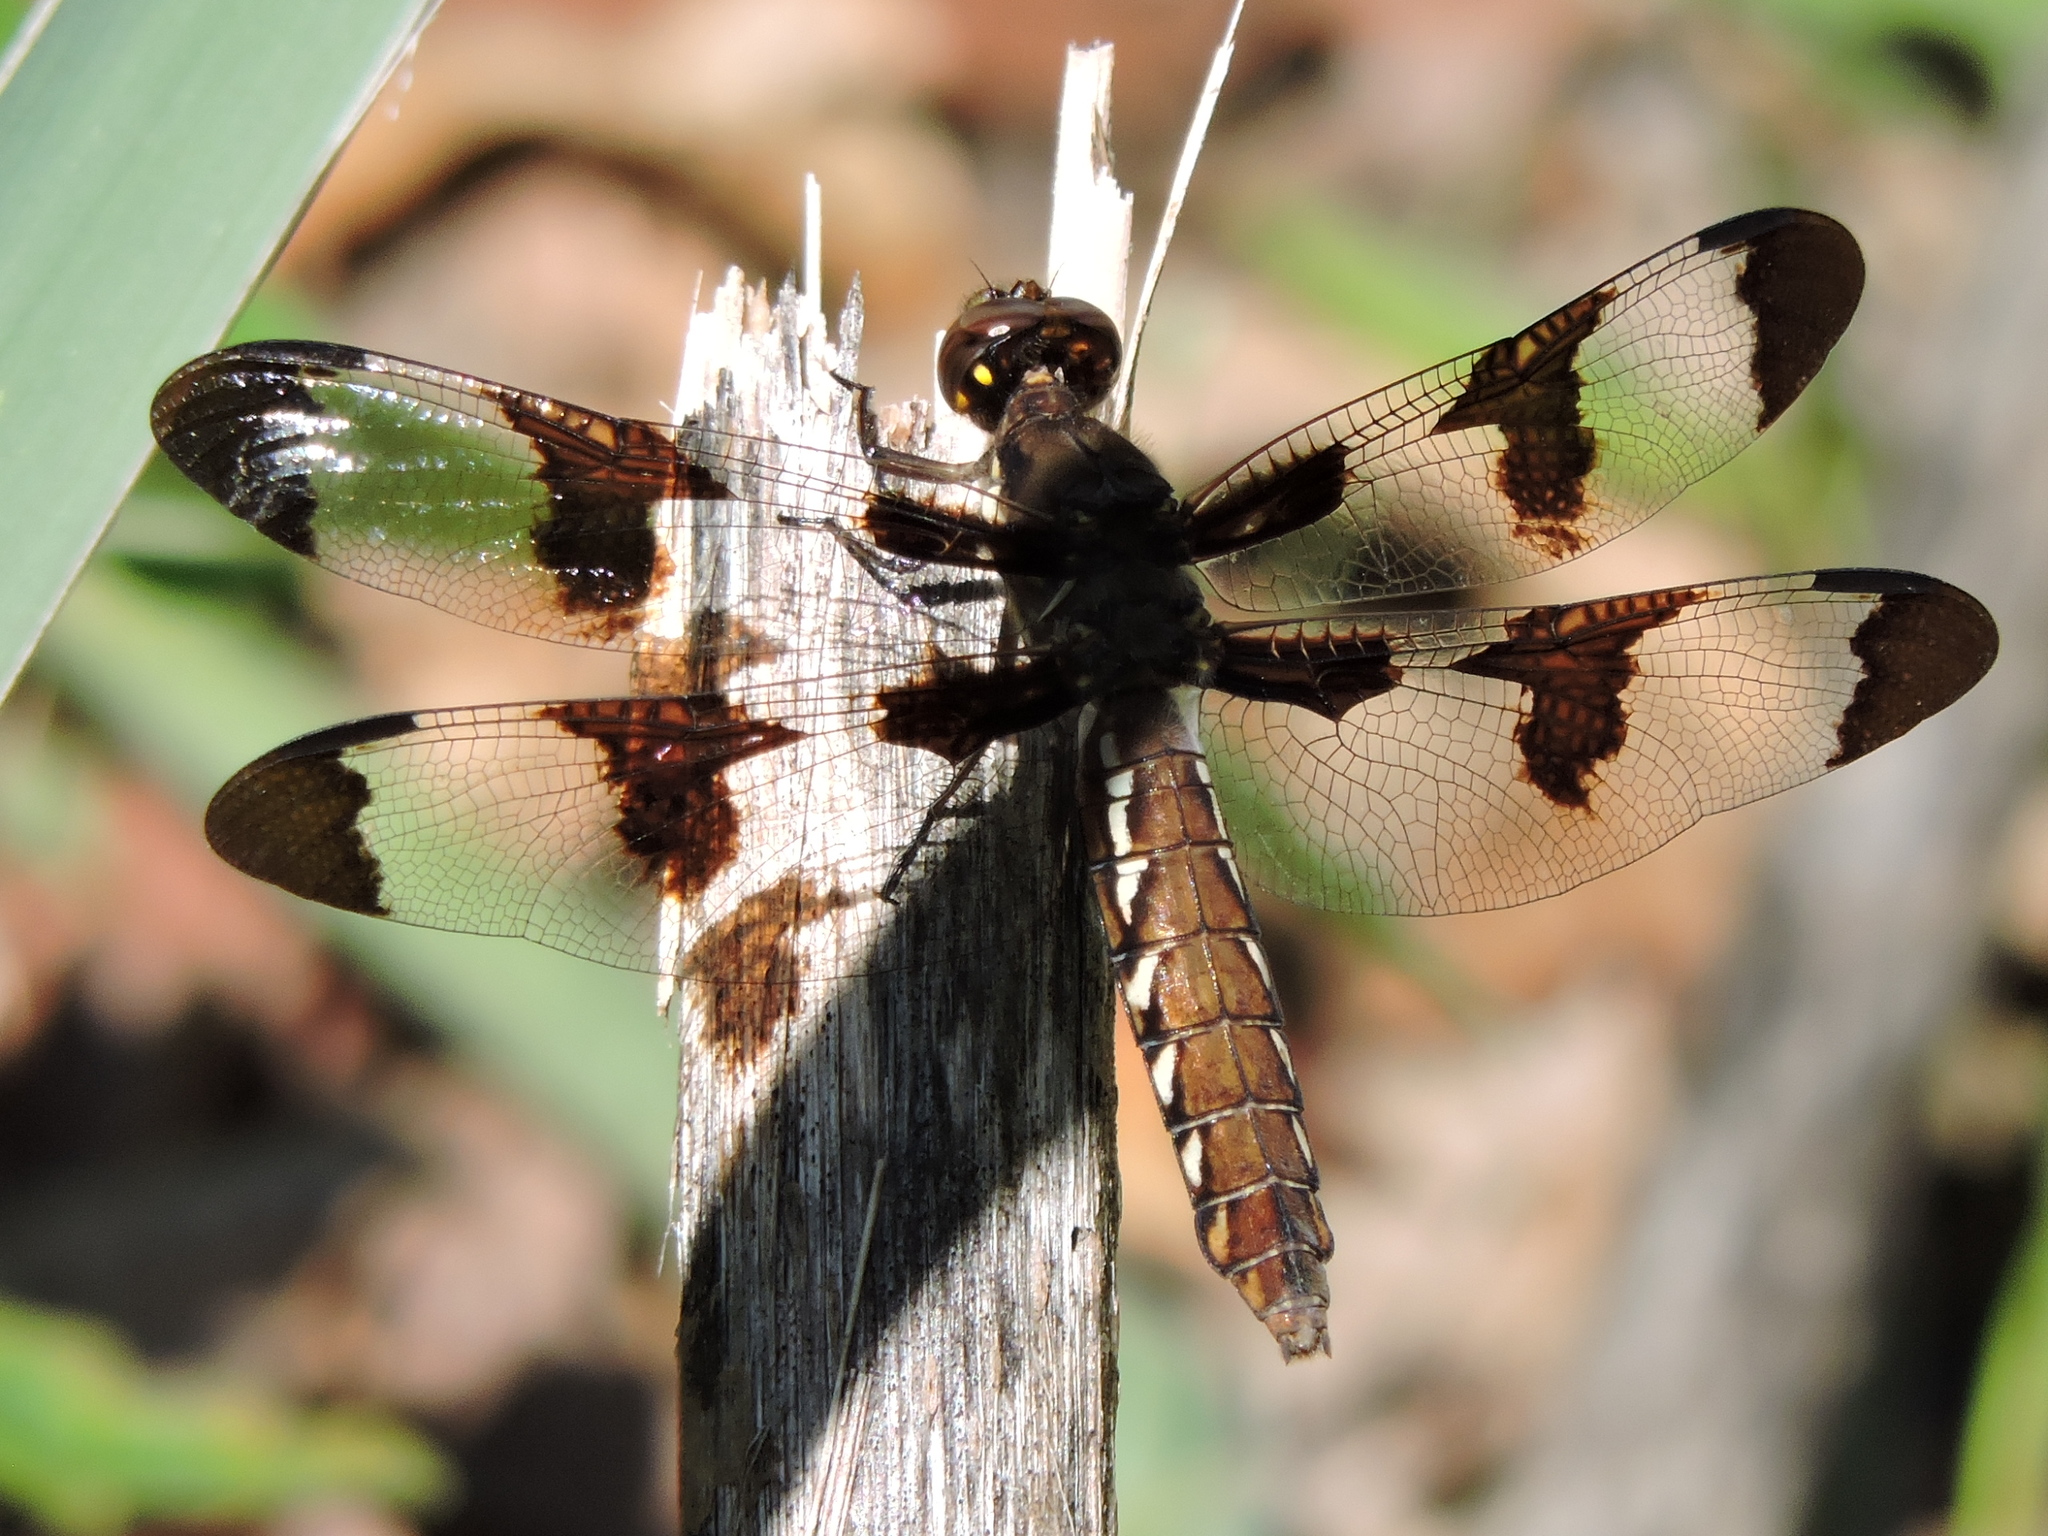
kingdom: Animalia
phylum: Arthropoda
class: Insecta
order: Odonata
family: Libellulidae
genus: Plathemis
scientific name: Plathemis lydia
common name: Common whitetail
